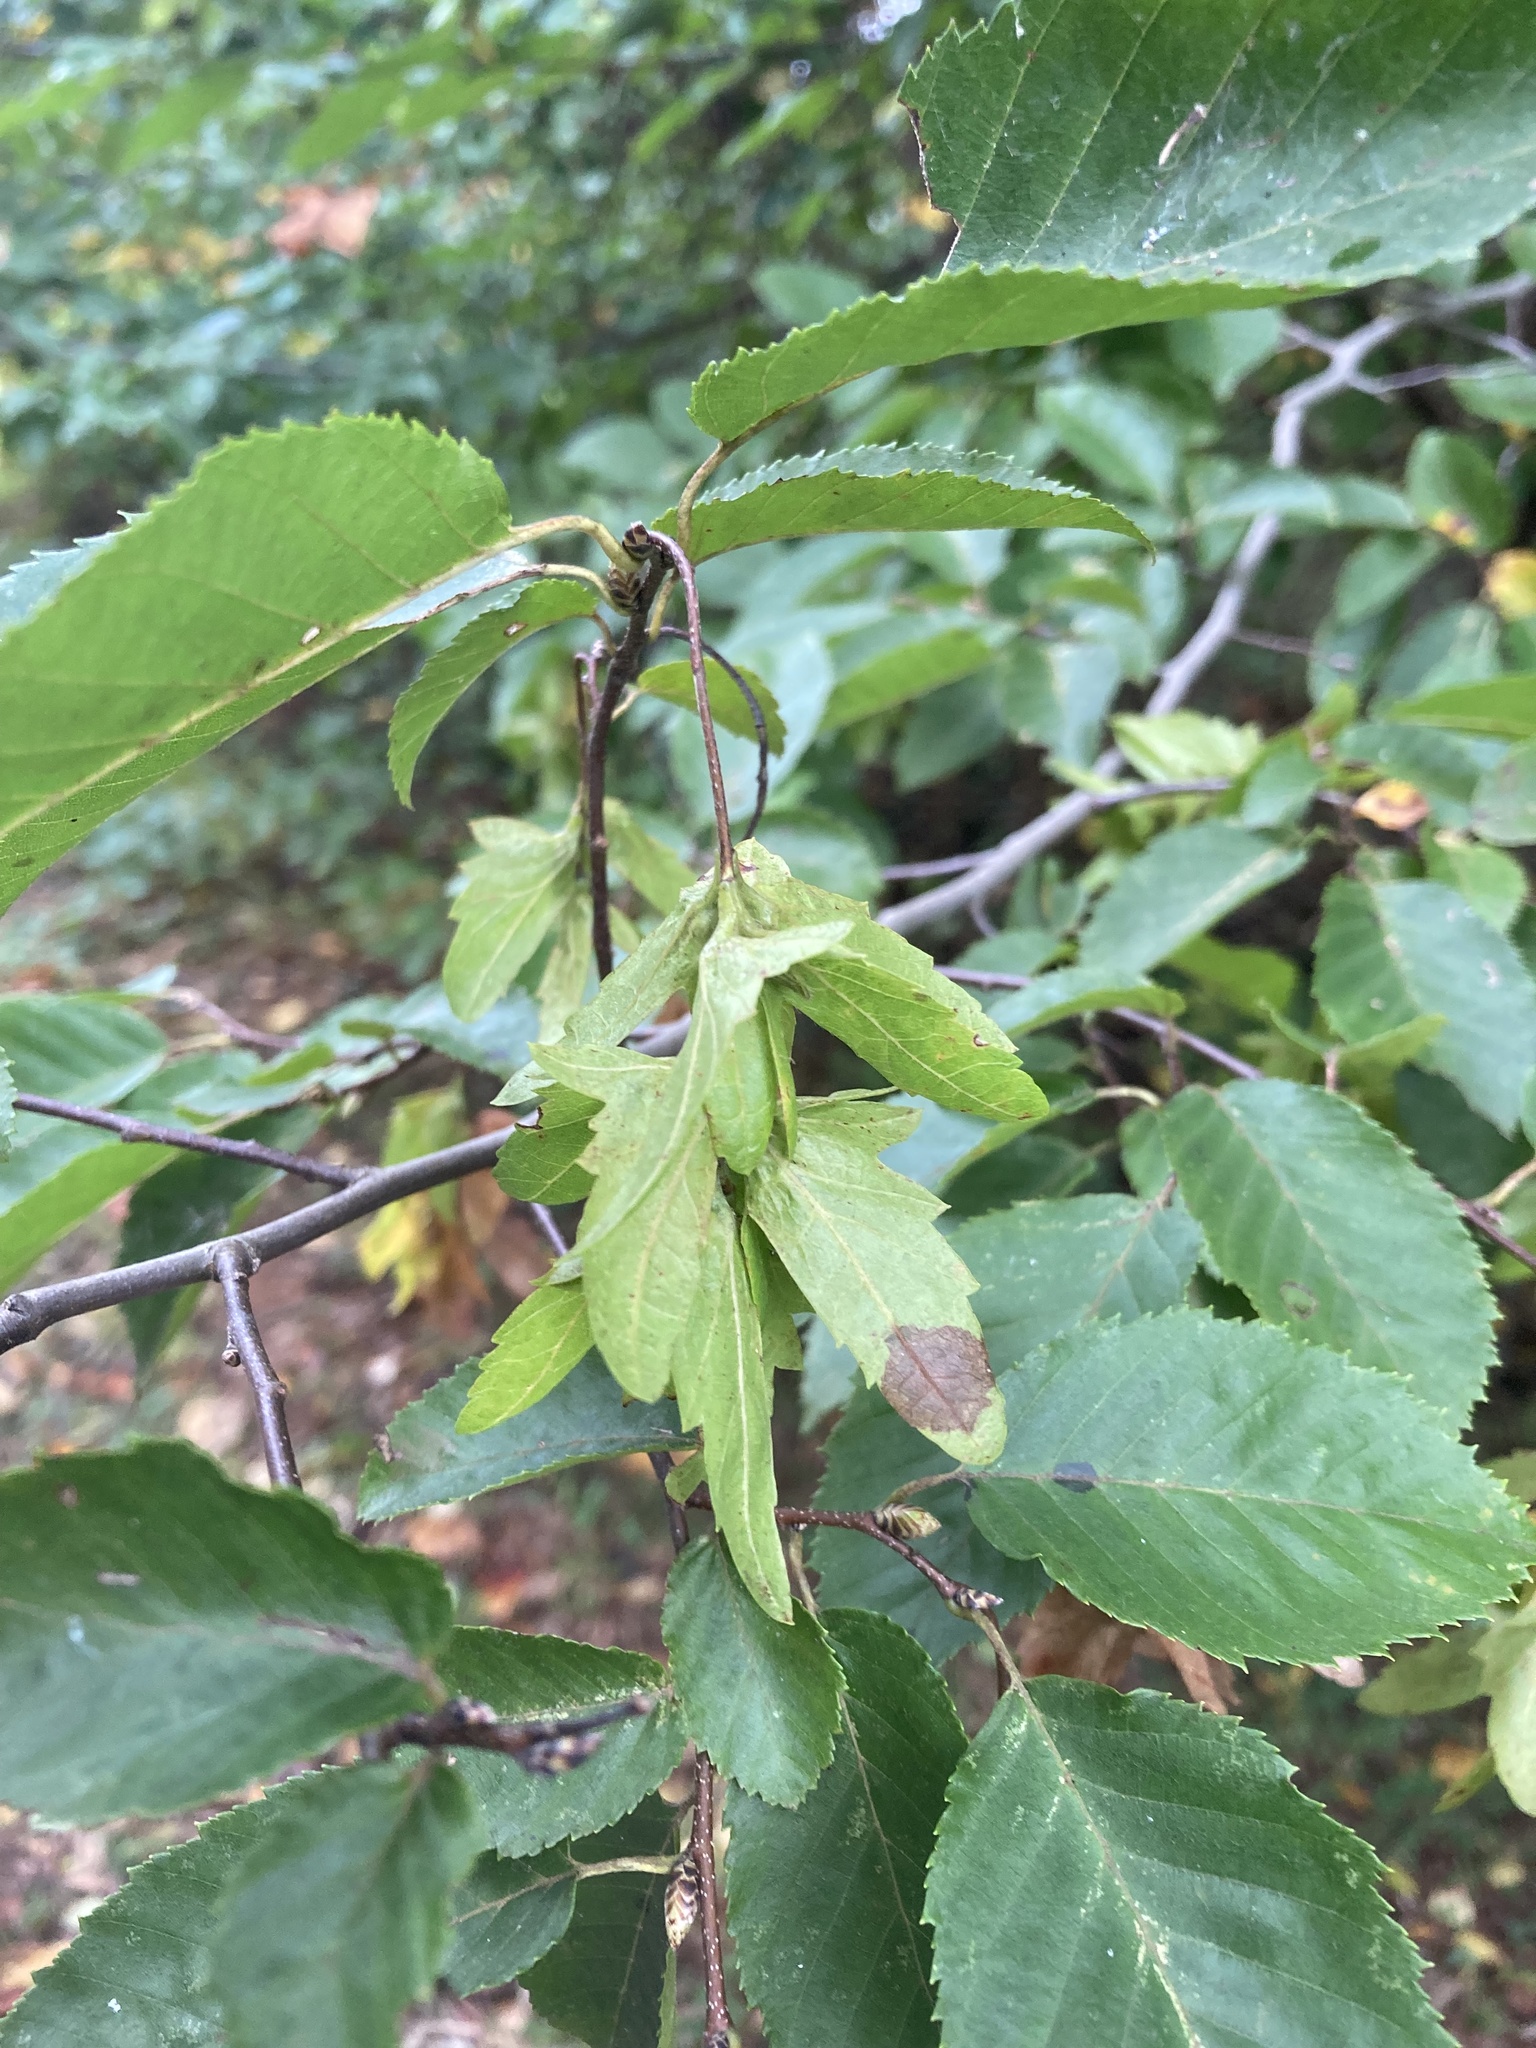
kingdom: Plantae
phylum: Tracheophyta
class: Magnoliopsida
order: Fagales
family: Betulaceae
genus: Carpinus
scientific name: Carpinus caroliniana
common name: American hornbeam
